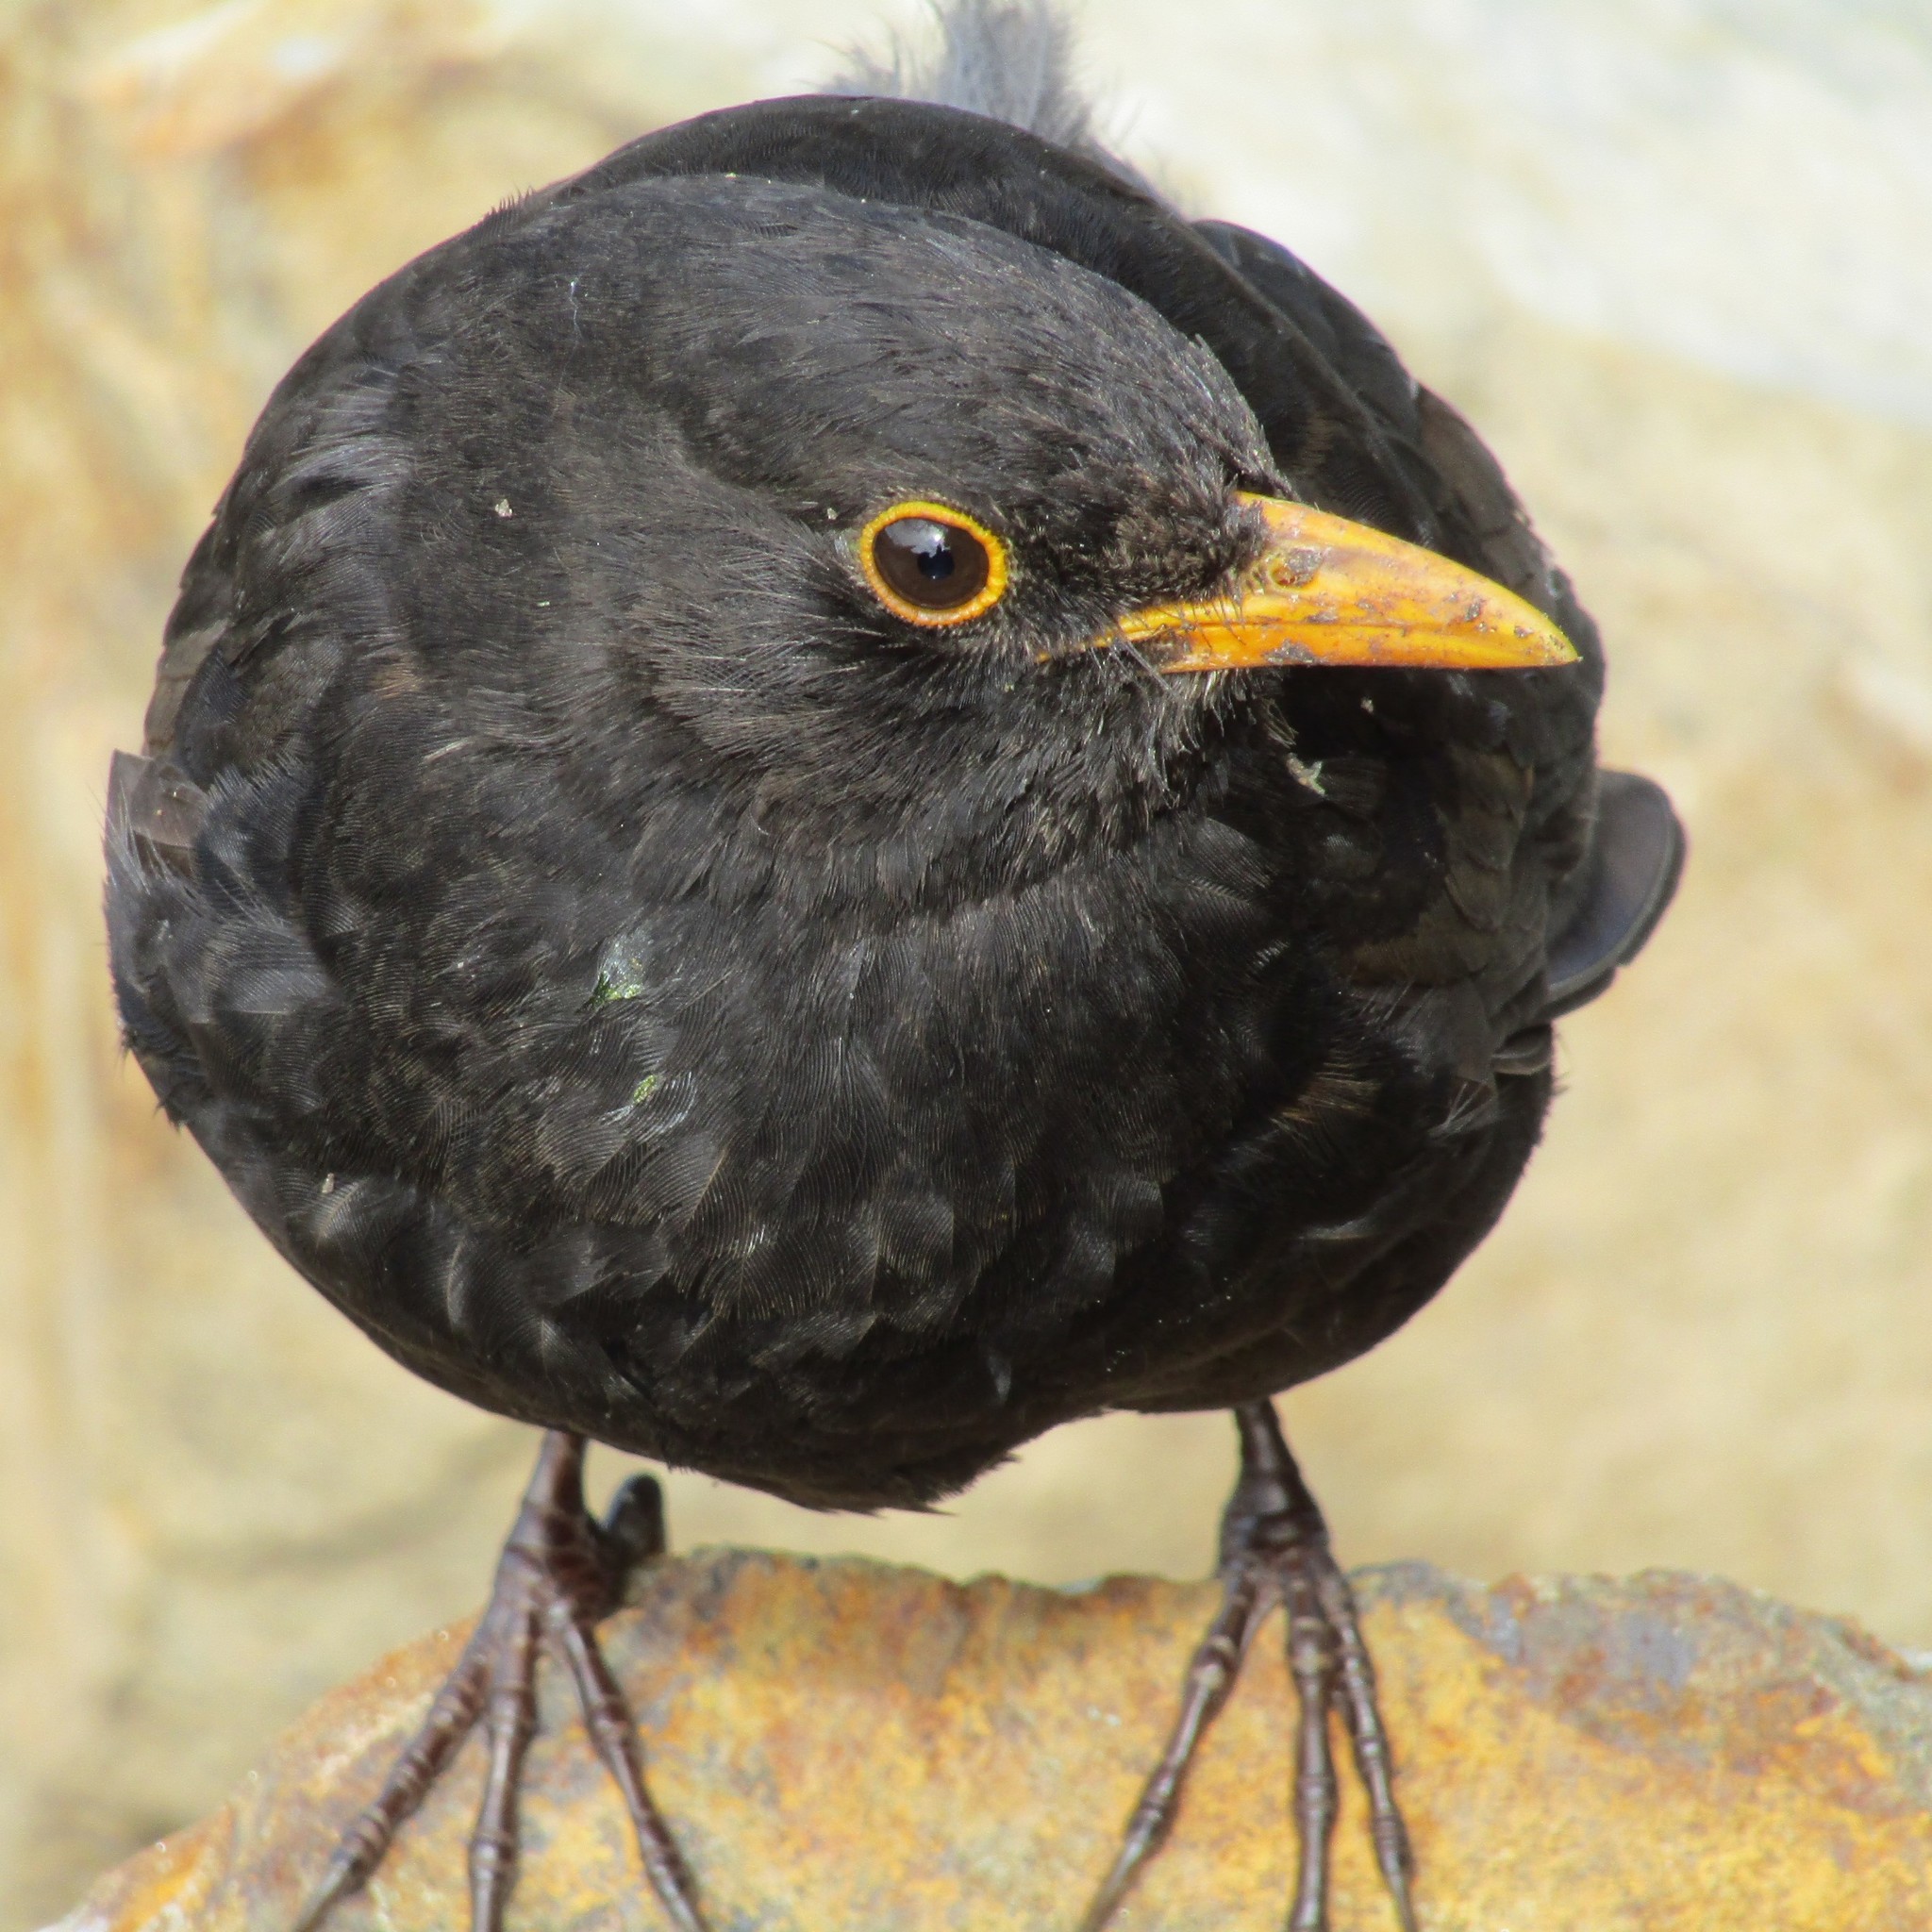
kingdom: Animalia
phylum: Chordata
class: Aves
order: Passeriformes
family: Turdidae
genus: Turdus
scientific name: Turdus merula
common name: Common blackbird
